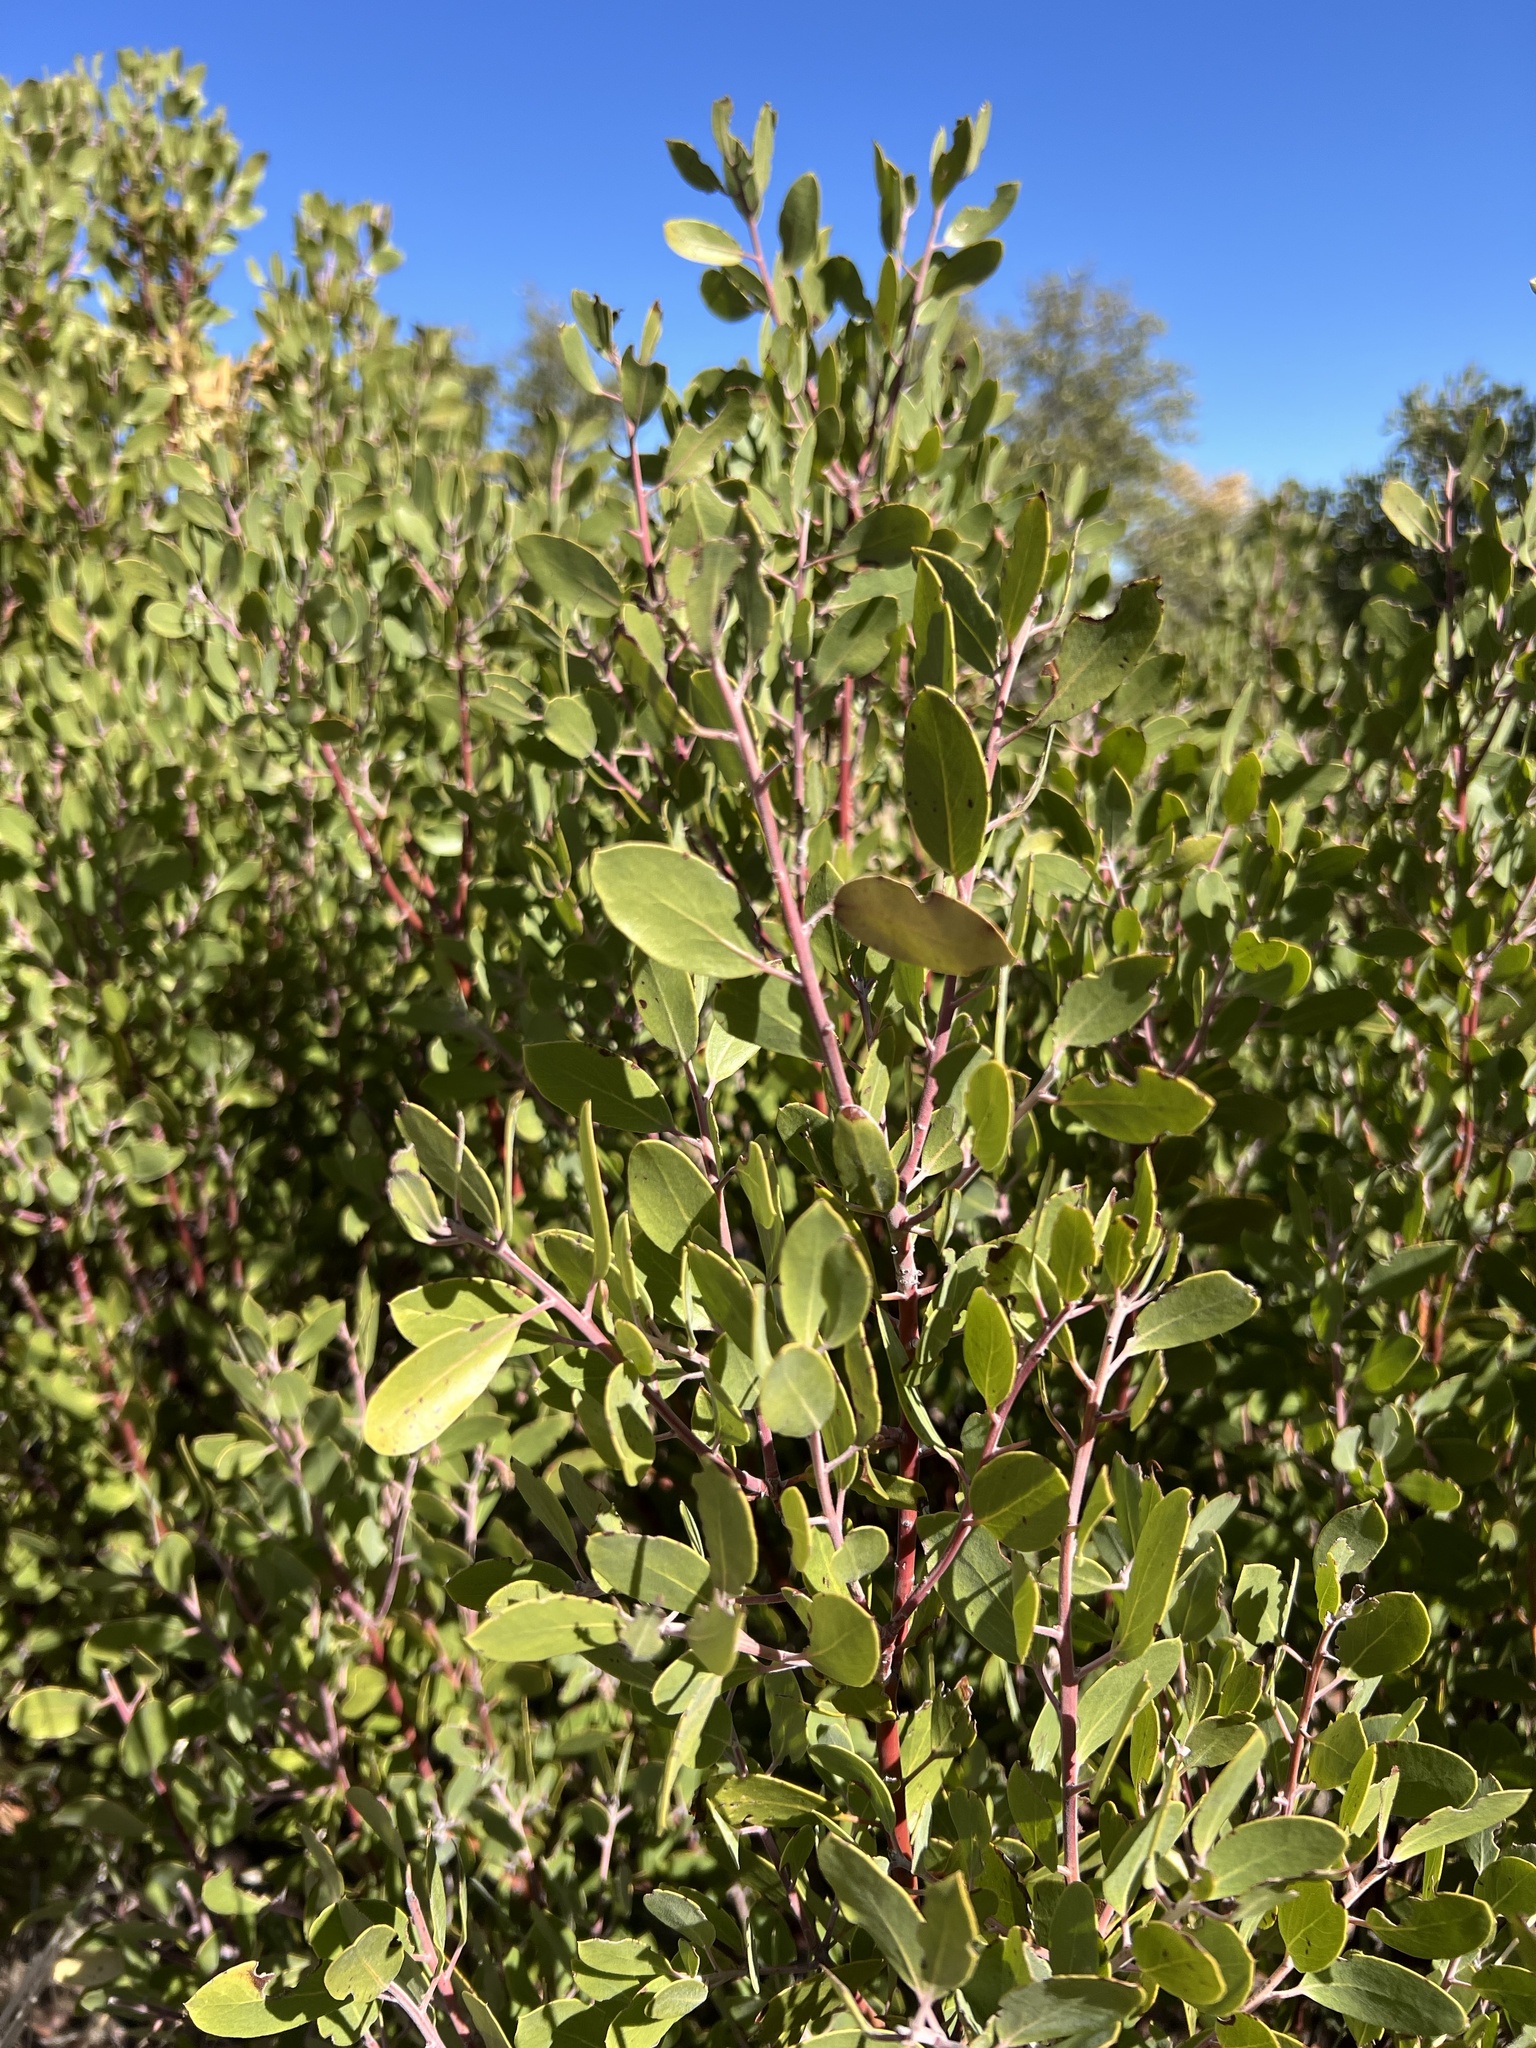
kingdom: Plantae
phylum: Tracheophyta
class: Magnoliopsida
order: Ericales
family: Ericaceae
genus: Arctostaphylos
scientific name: Arctostaphylos pungens
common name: Mexican manzanita
